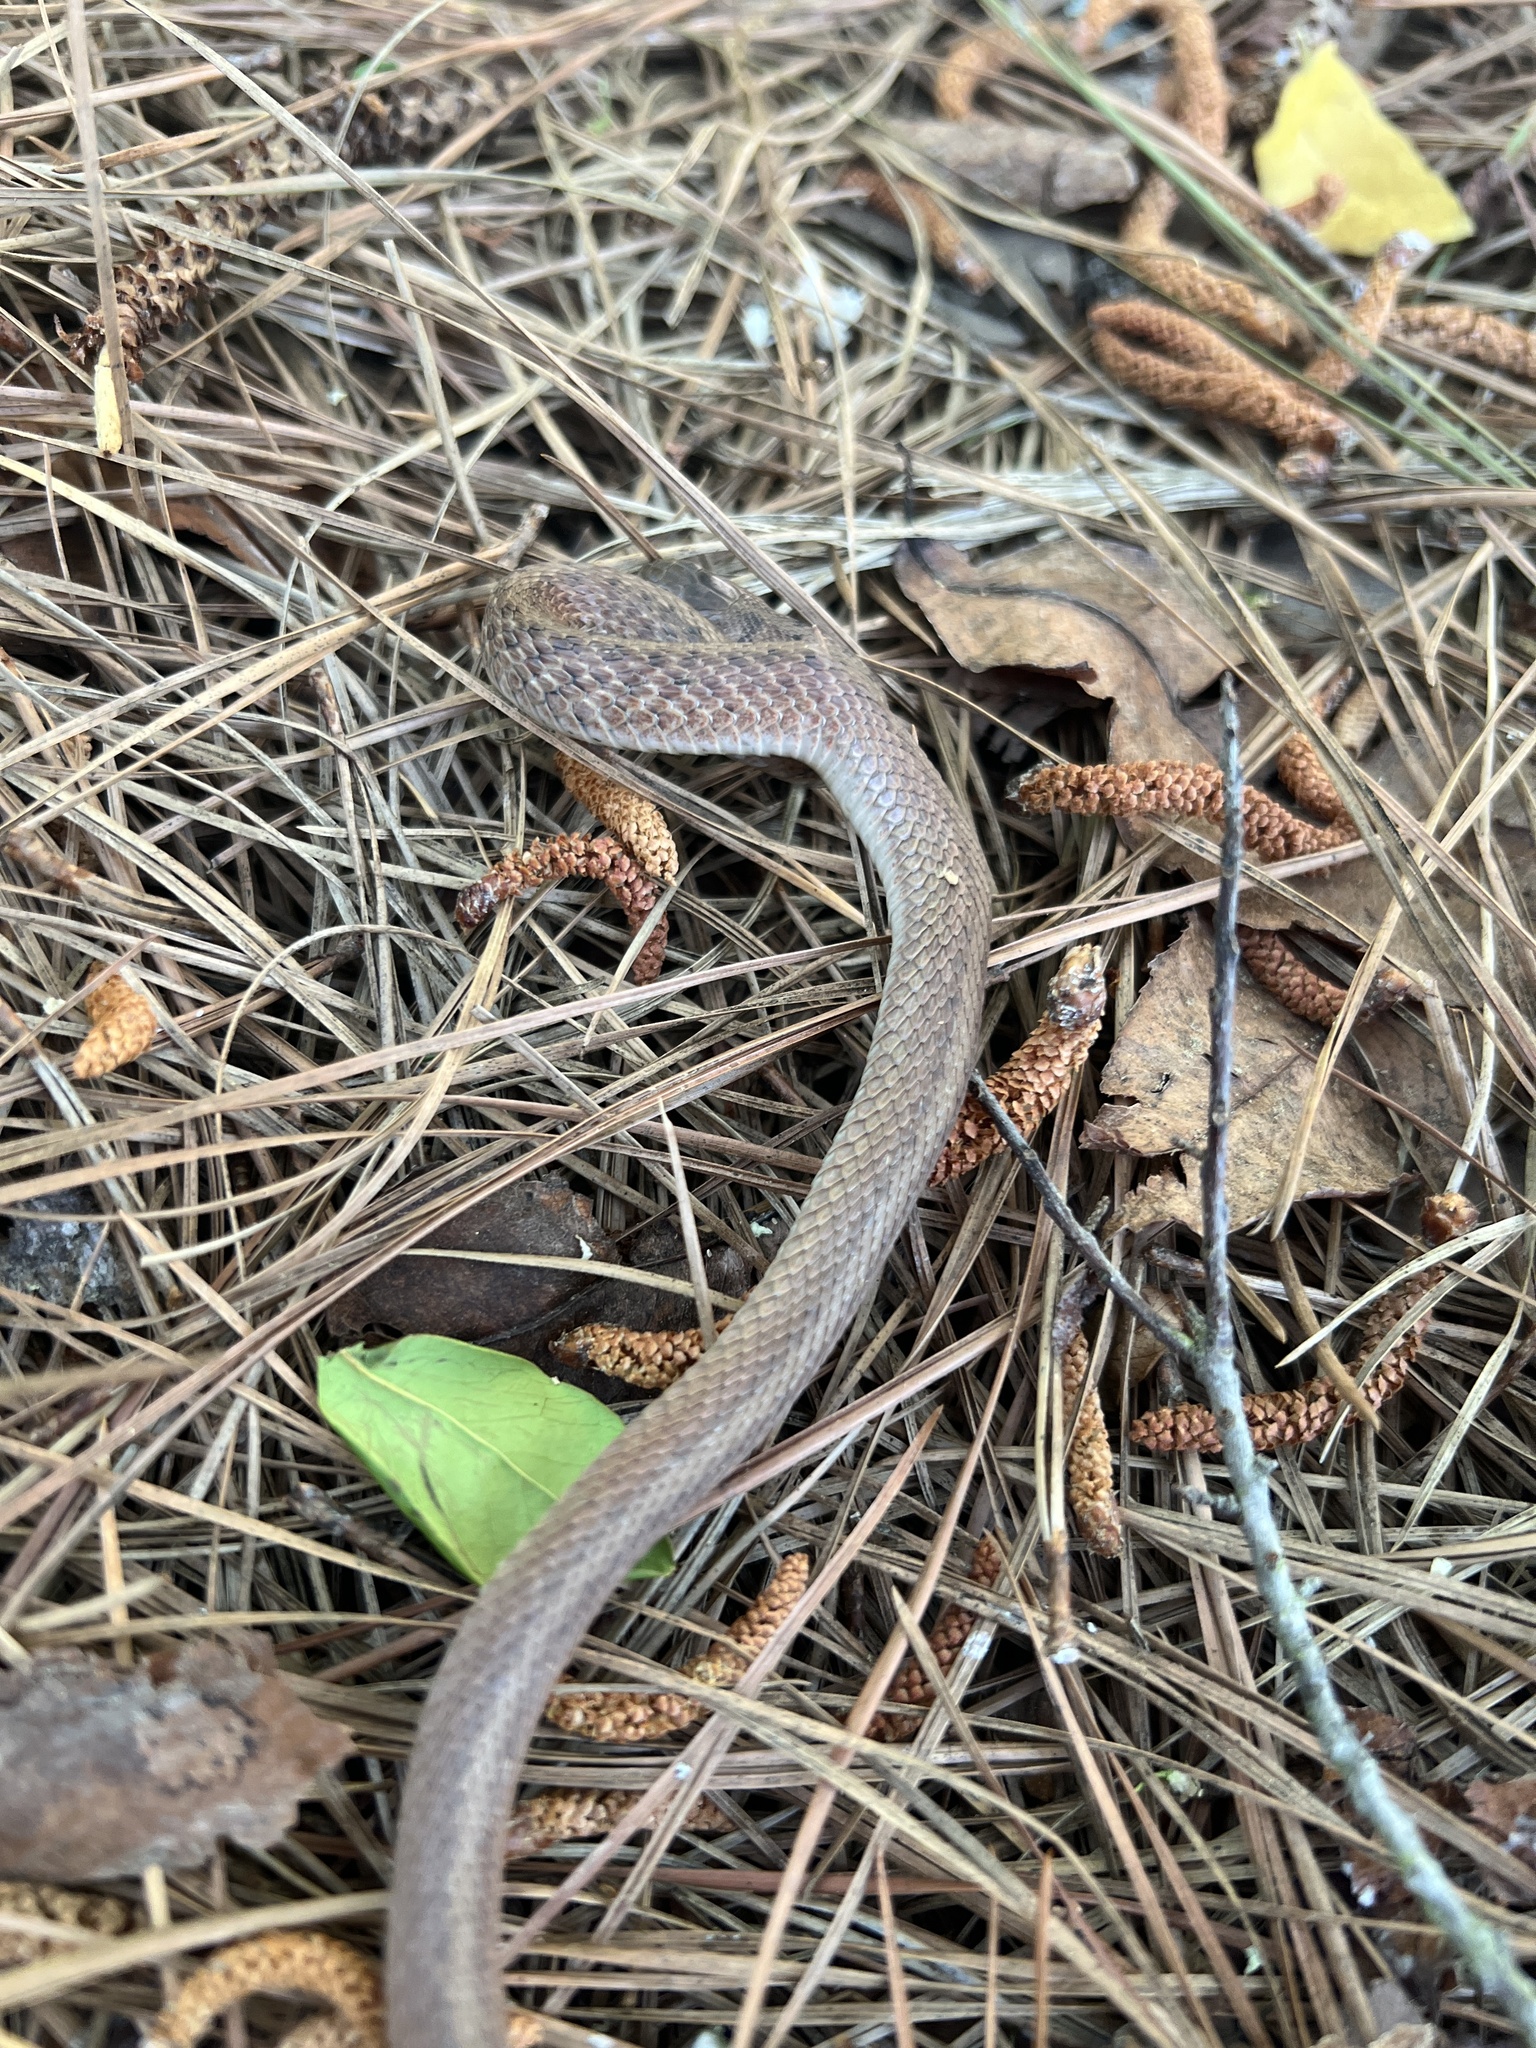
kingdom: Animalia
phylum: Chordata
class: Squamata
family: Colubridae
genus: Storeria
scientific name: Storeria dekayi
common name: (dekay’s) brown snake
